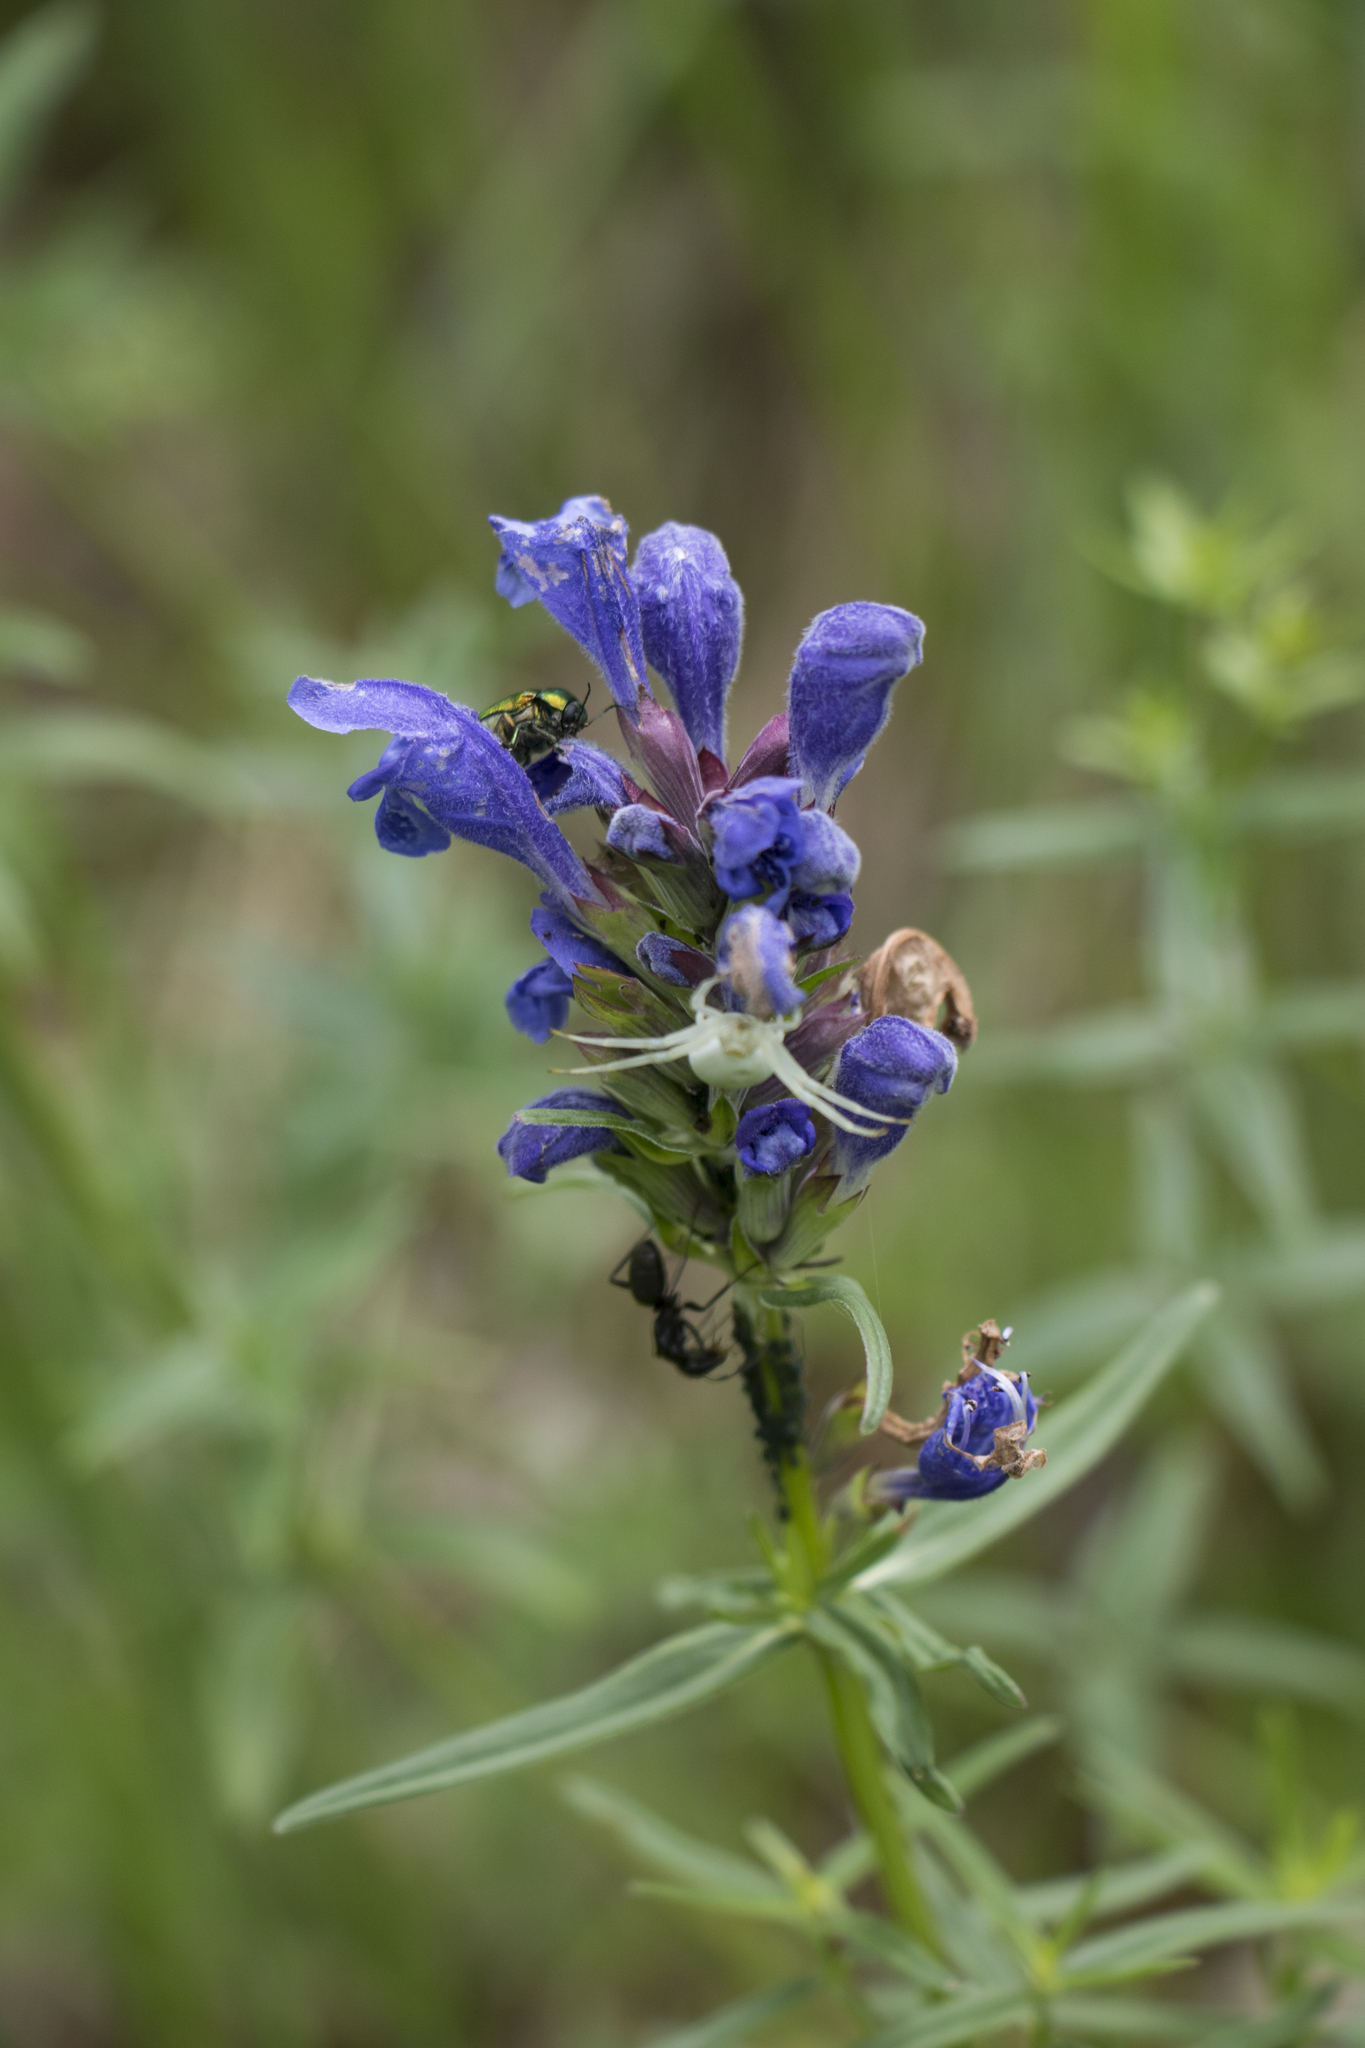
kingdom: Plantae
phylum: Tracheophyta
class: Magnoliopsida
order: Lamiales
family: Lamiaceae
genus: Dracocephalum
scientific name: Dracocephalum ruyschiana
